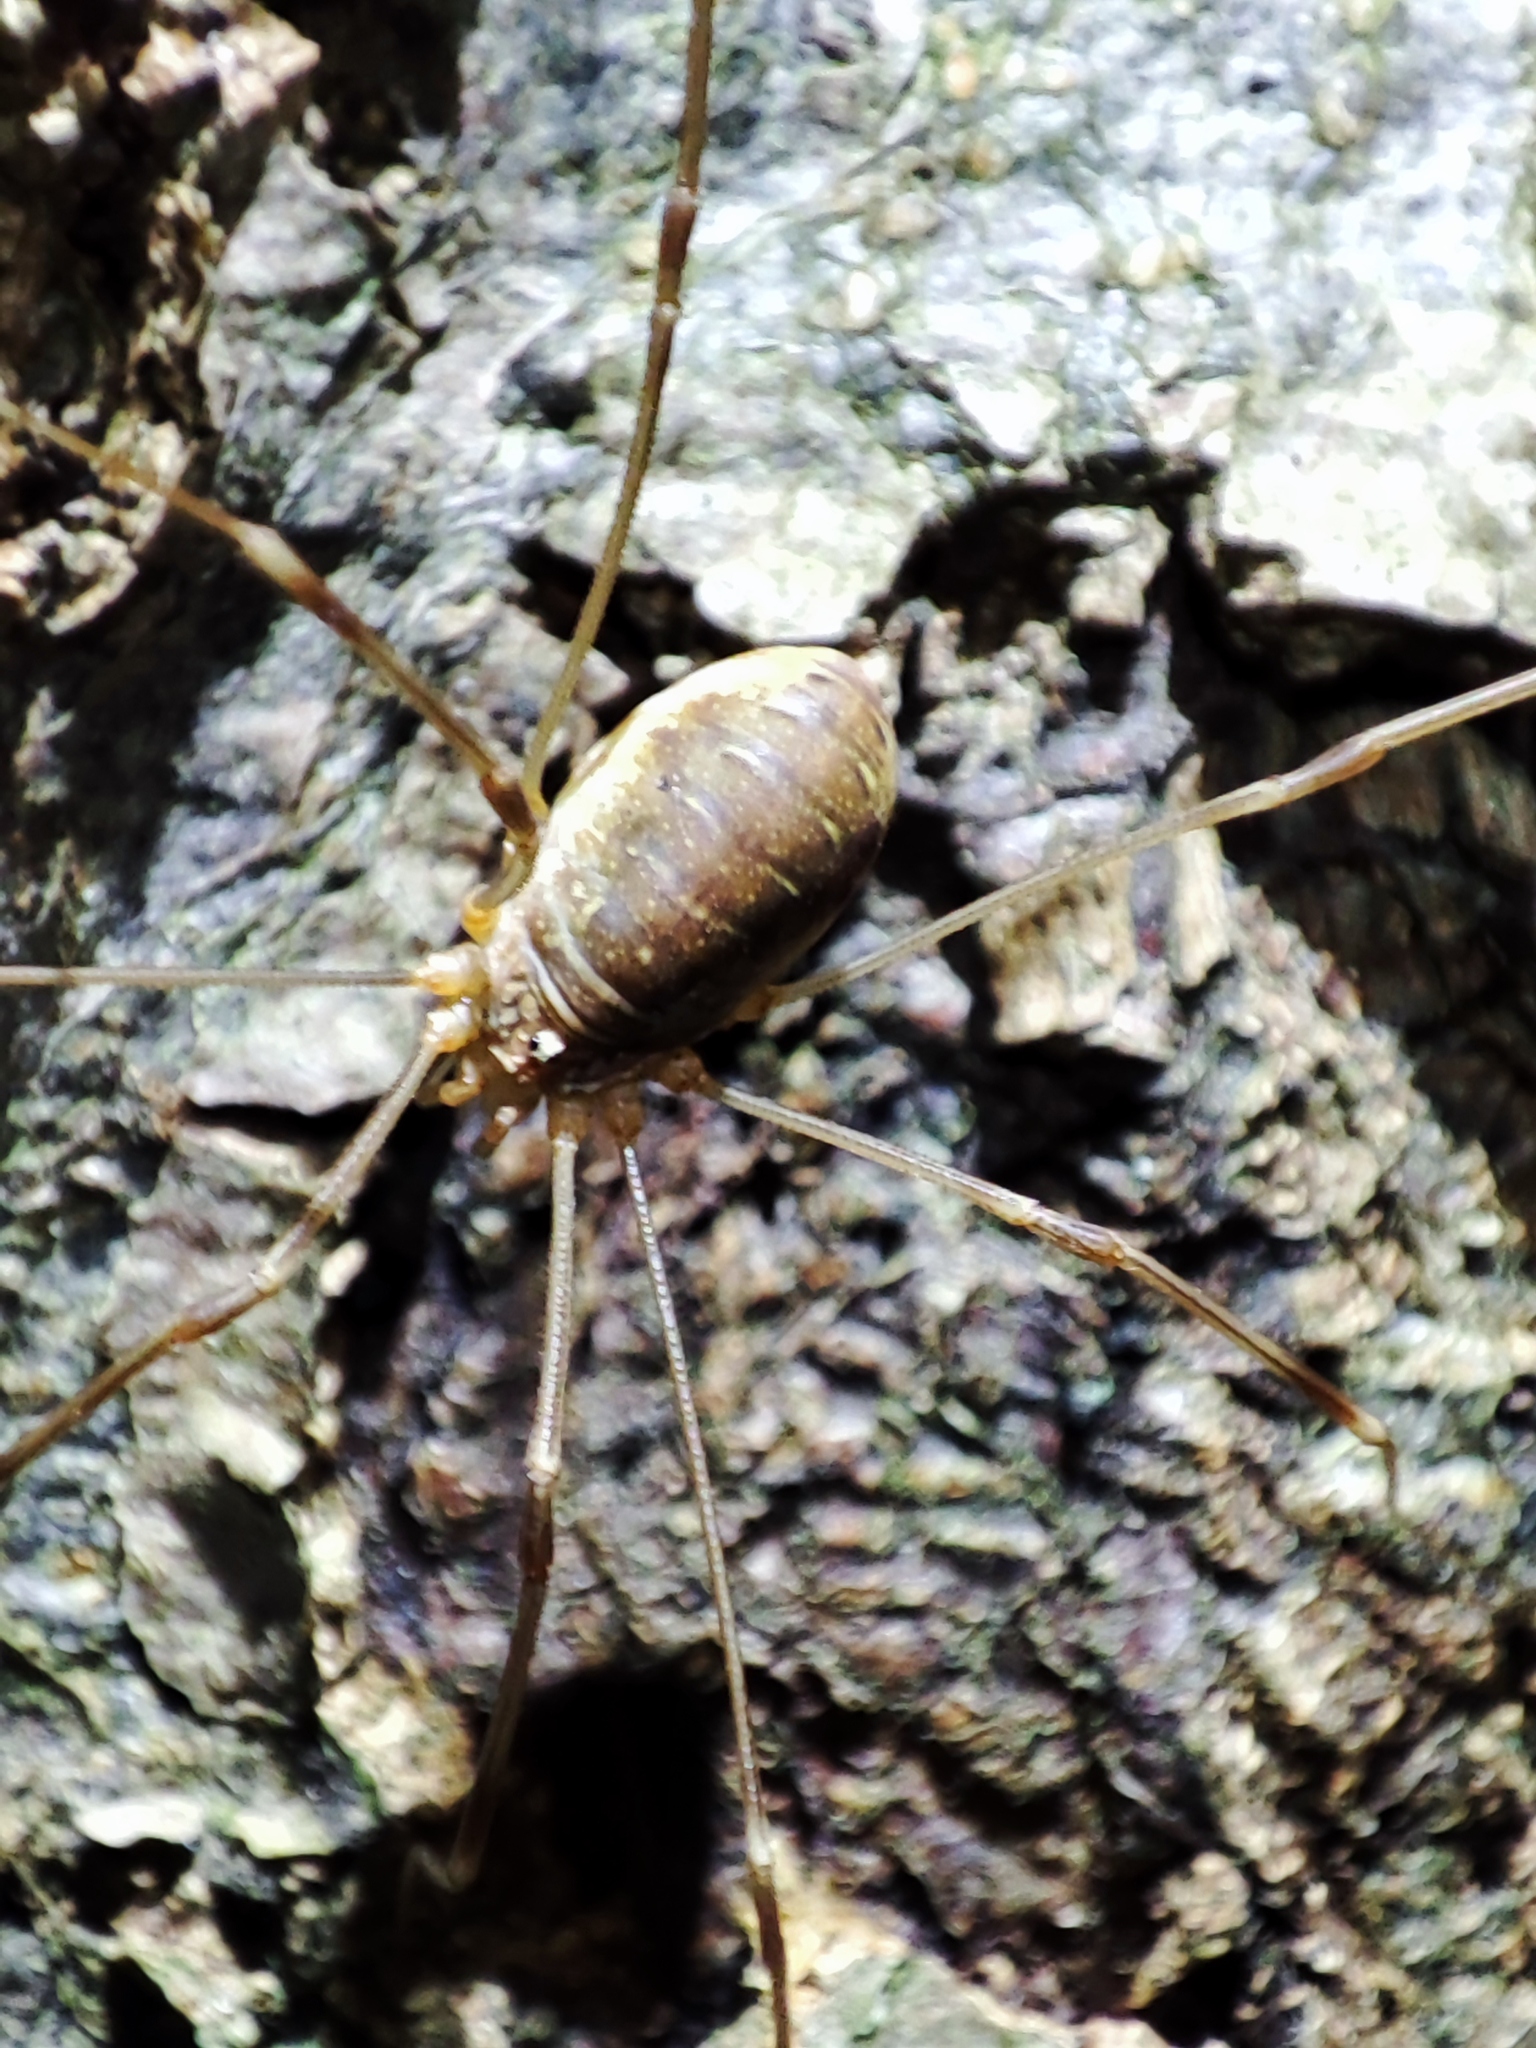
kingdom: Animalia
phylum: Arthropoda
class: Arachnida
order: Opiliones
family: Phalangiidae
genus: Opilio
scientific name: Opilio canestrinii
